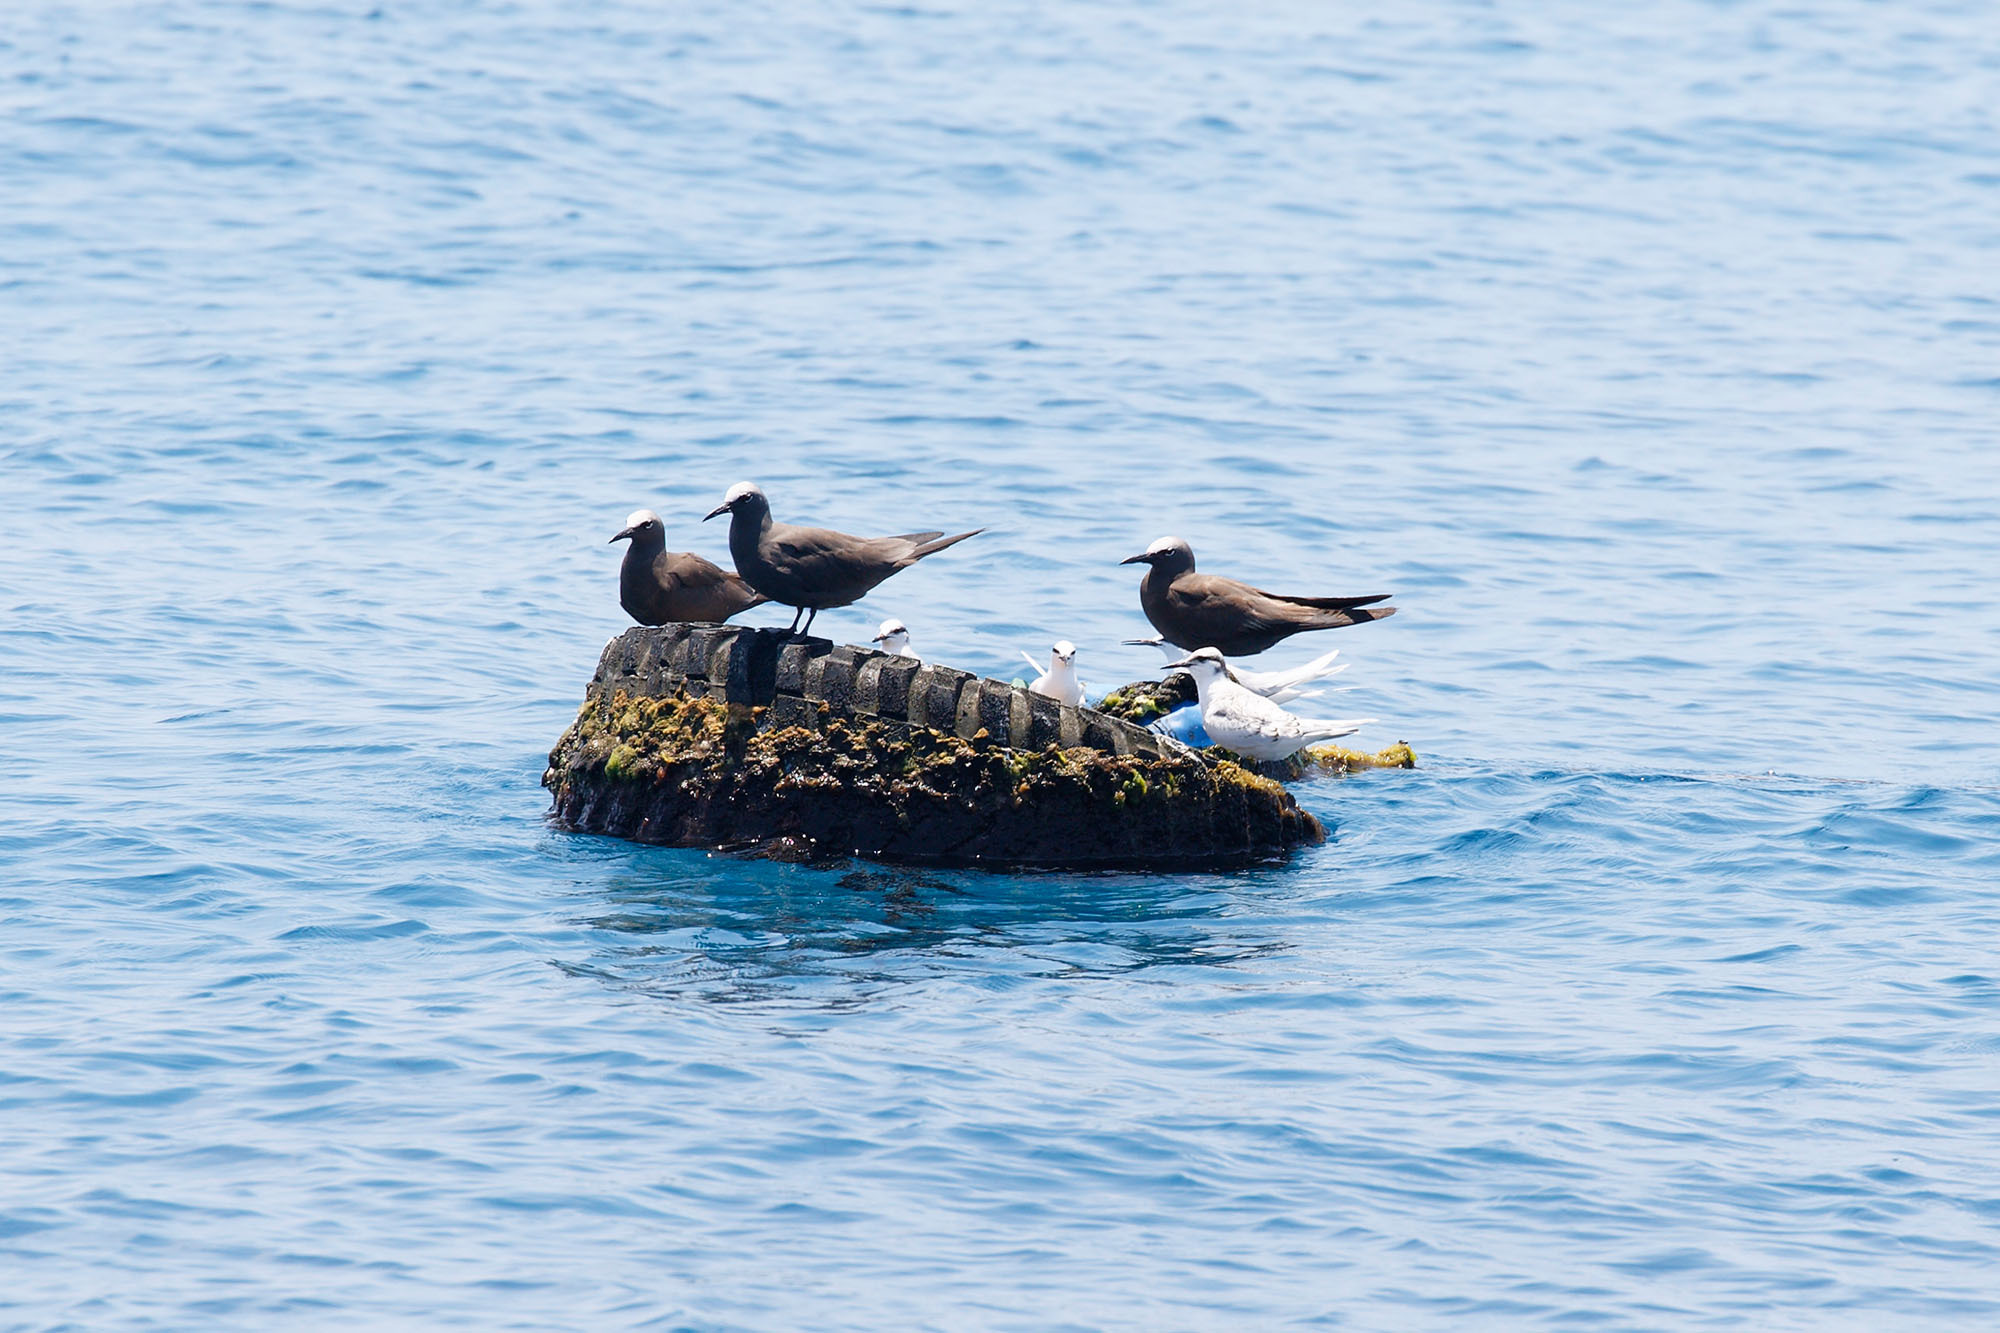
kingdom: Animalia
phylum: Chordata
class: Aves
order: Charadriiformes
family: Laridae
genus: Anous
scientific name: Anous stolidus
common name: Brown noddy
